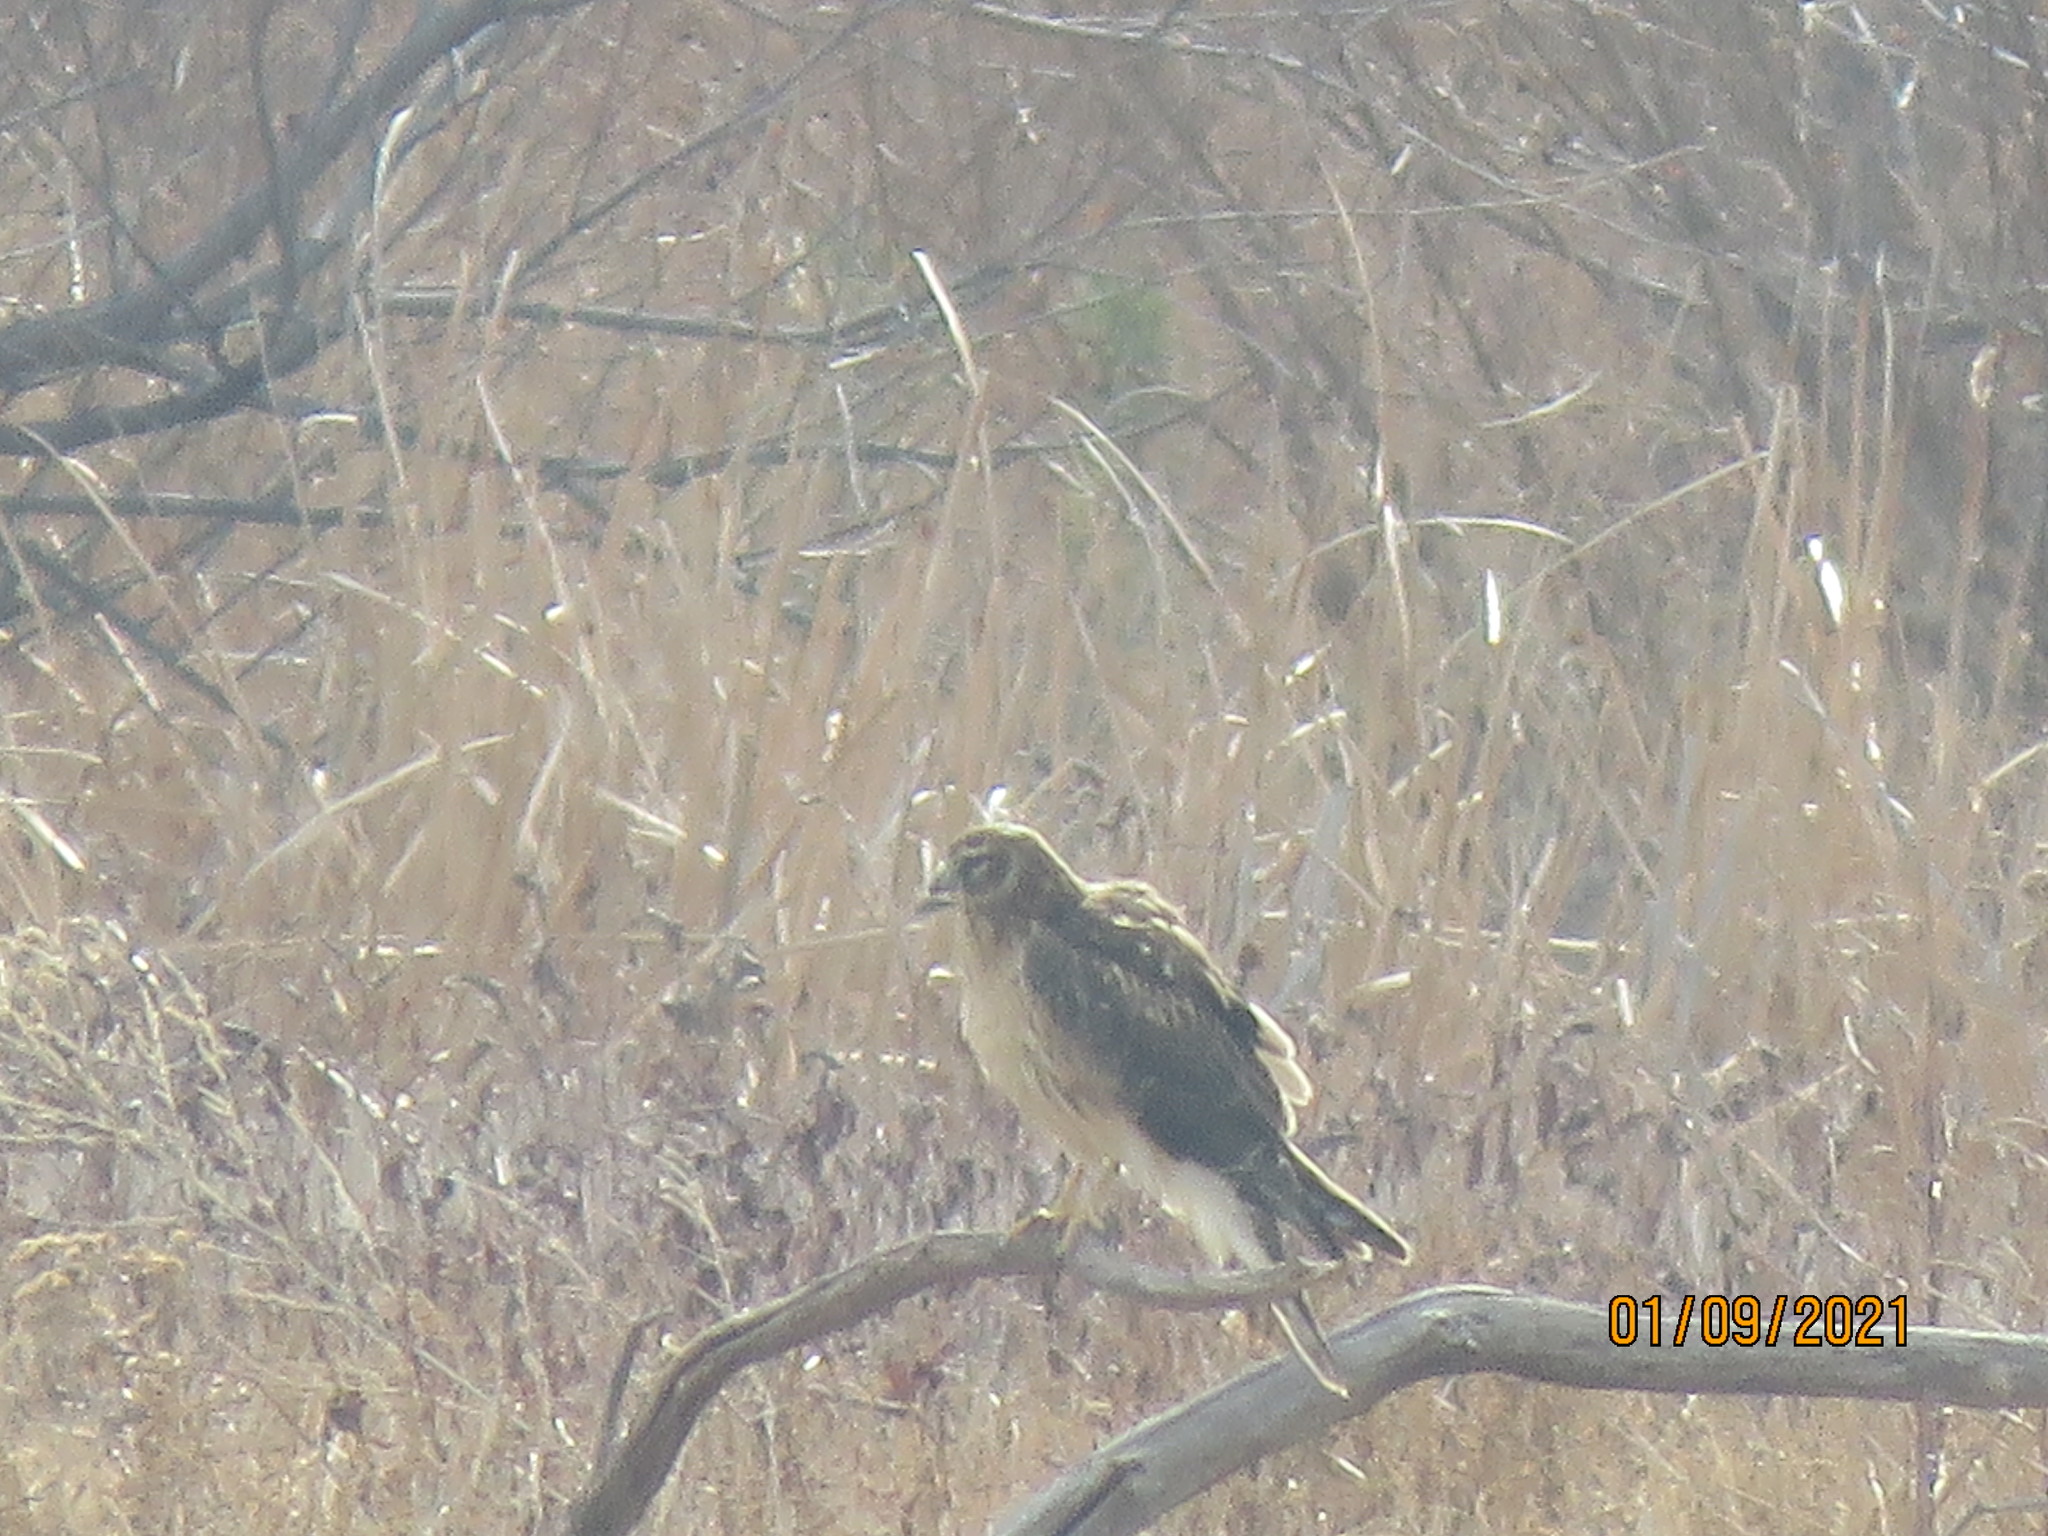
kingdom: Animalia
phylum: Chordata
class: Aves
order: Accipitriformes
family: Accipitridae
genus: Circus
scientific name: Circus cyaneus
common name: Hen harrier
